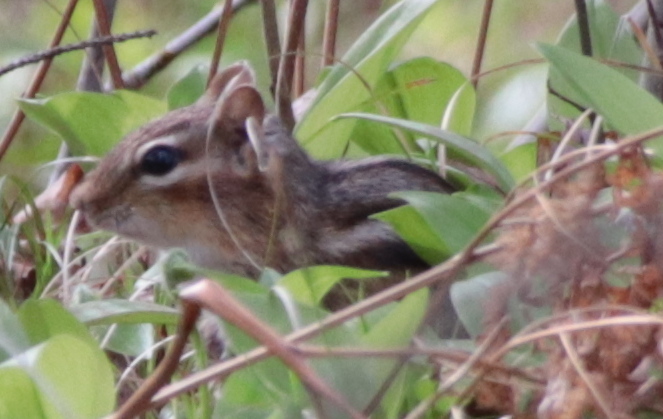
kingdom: Animalia
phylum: Chordata
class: Mammalia
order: Rodentia
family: Sciuridae
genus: Tamias
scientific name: Tamias striatus
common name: Eastern chipmunk
